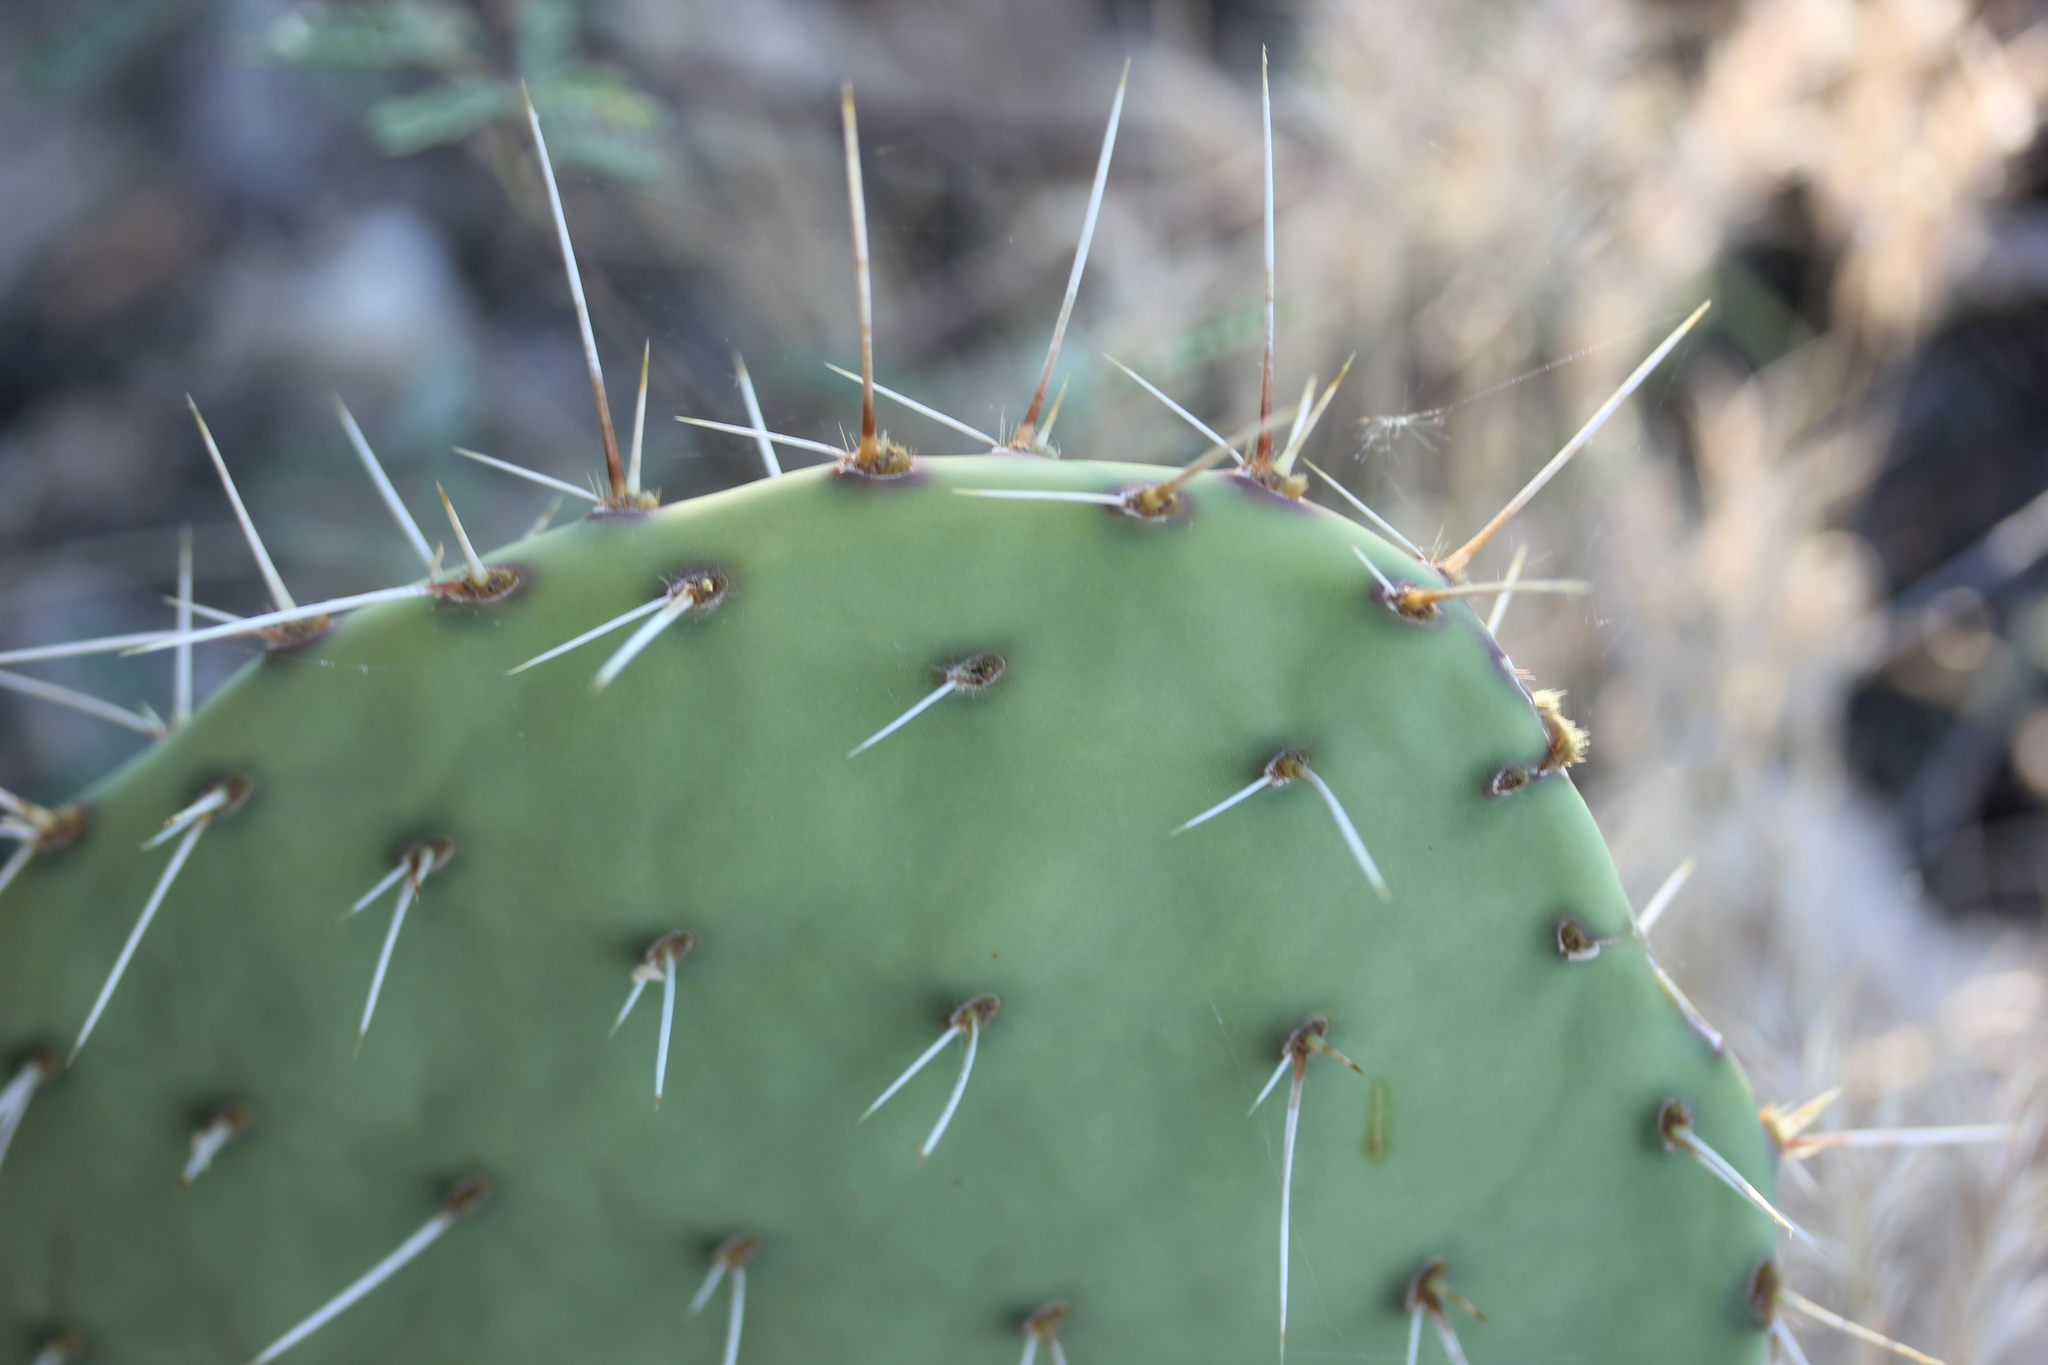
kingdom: Plantae
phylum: Tracheophyta
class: Magnoliopsida
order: Caryophyllales
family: Cactaceae
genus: Opuntia
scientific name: Opuntia phaeacantha
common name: New mexico prickly-pear
